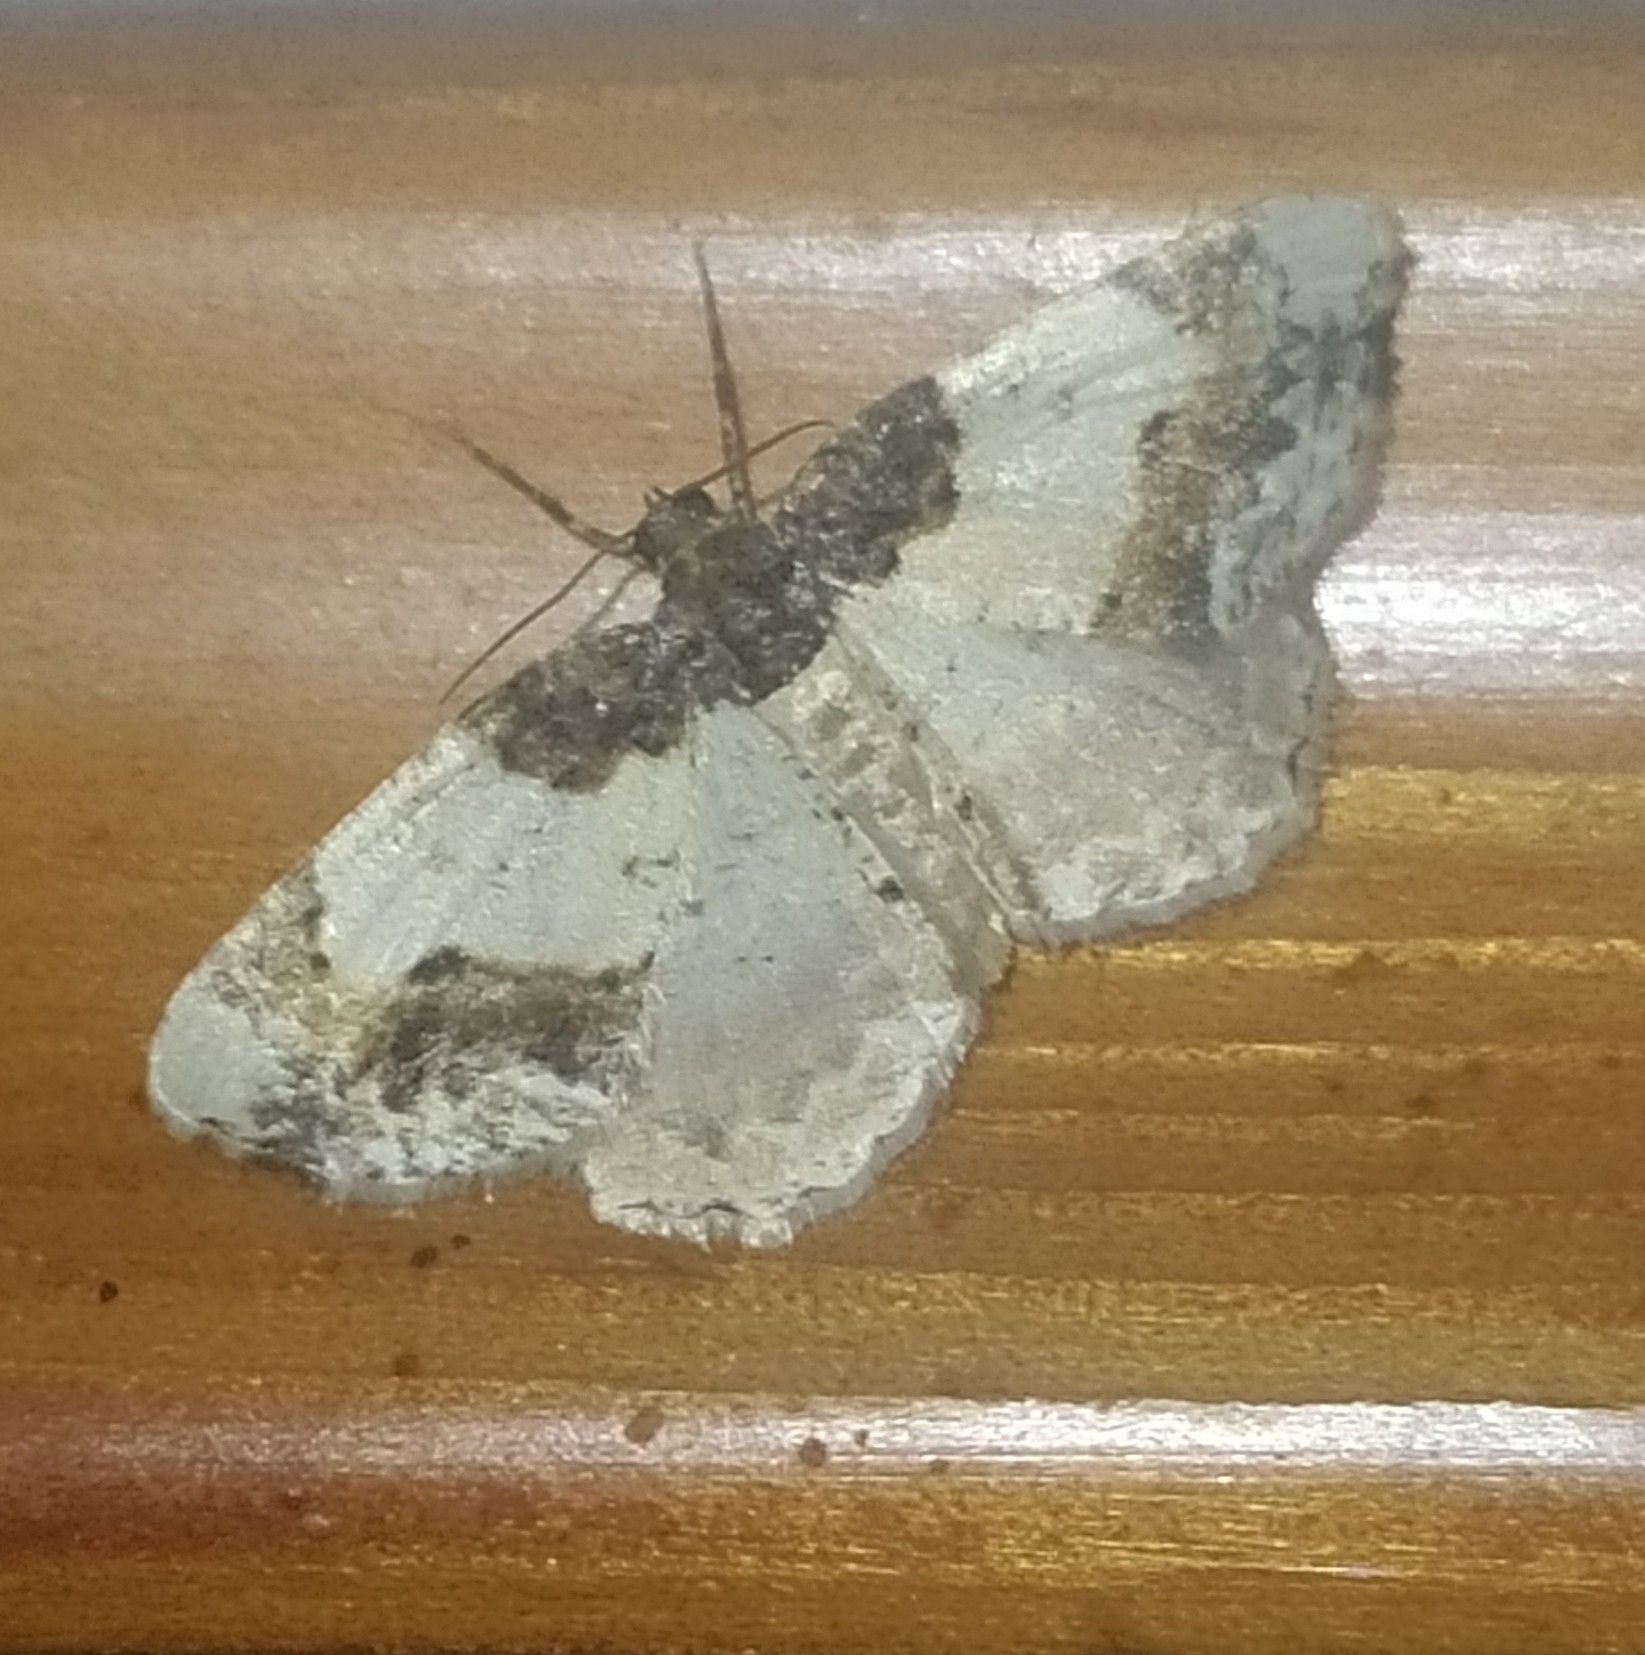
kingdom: Animalia
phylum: Arthropoda
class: Insecta
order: Lepidoptera
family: Geometridae
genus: Ligdia
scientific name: Ligdia adustata
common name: Scorched carpet
